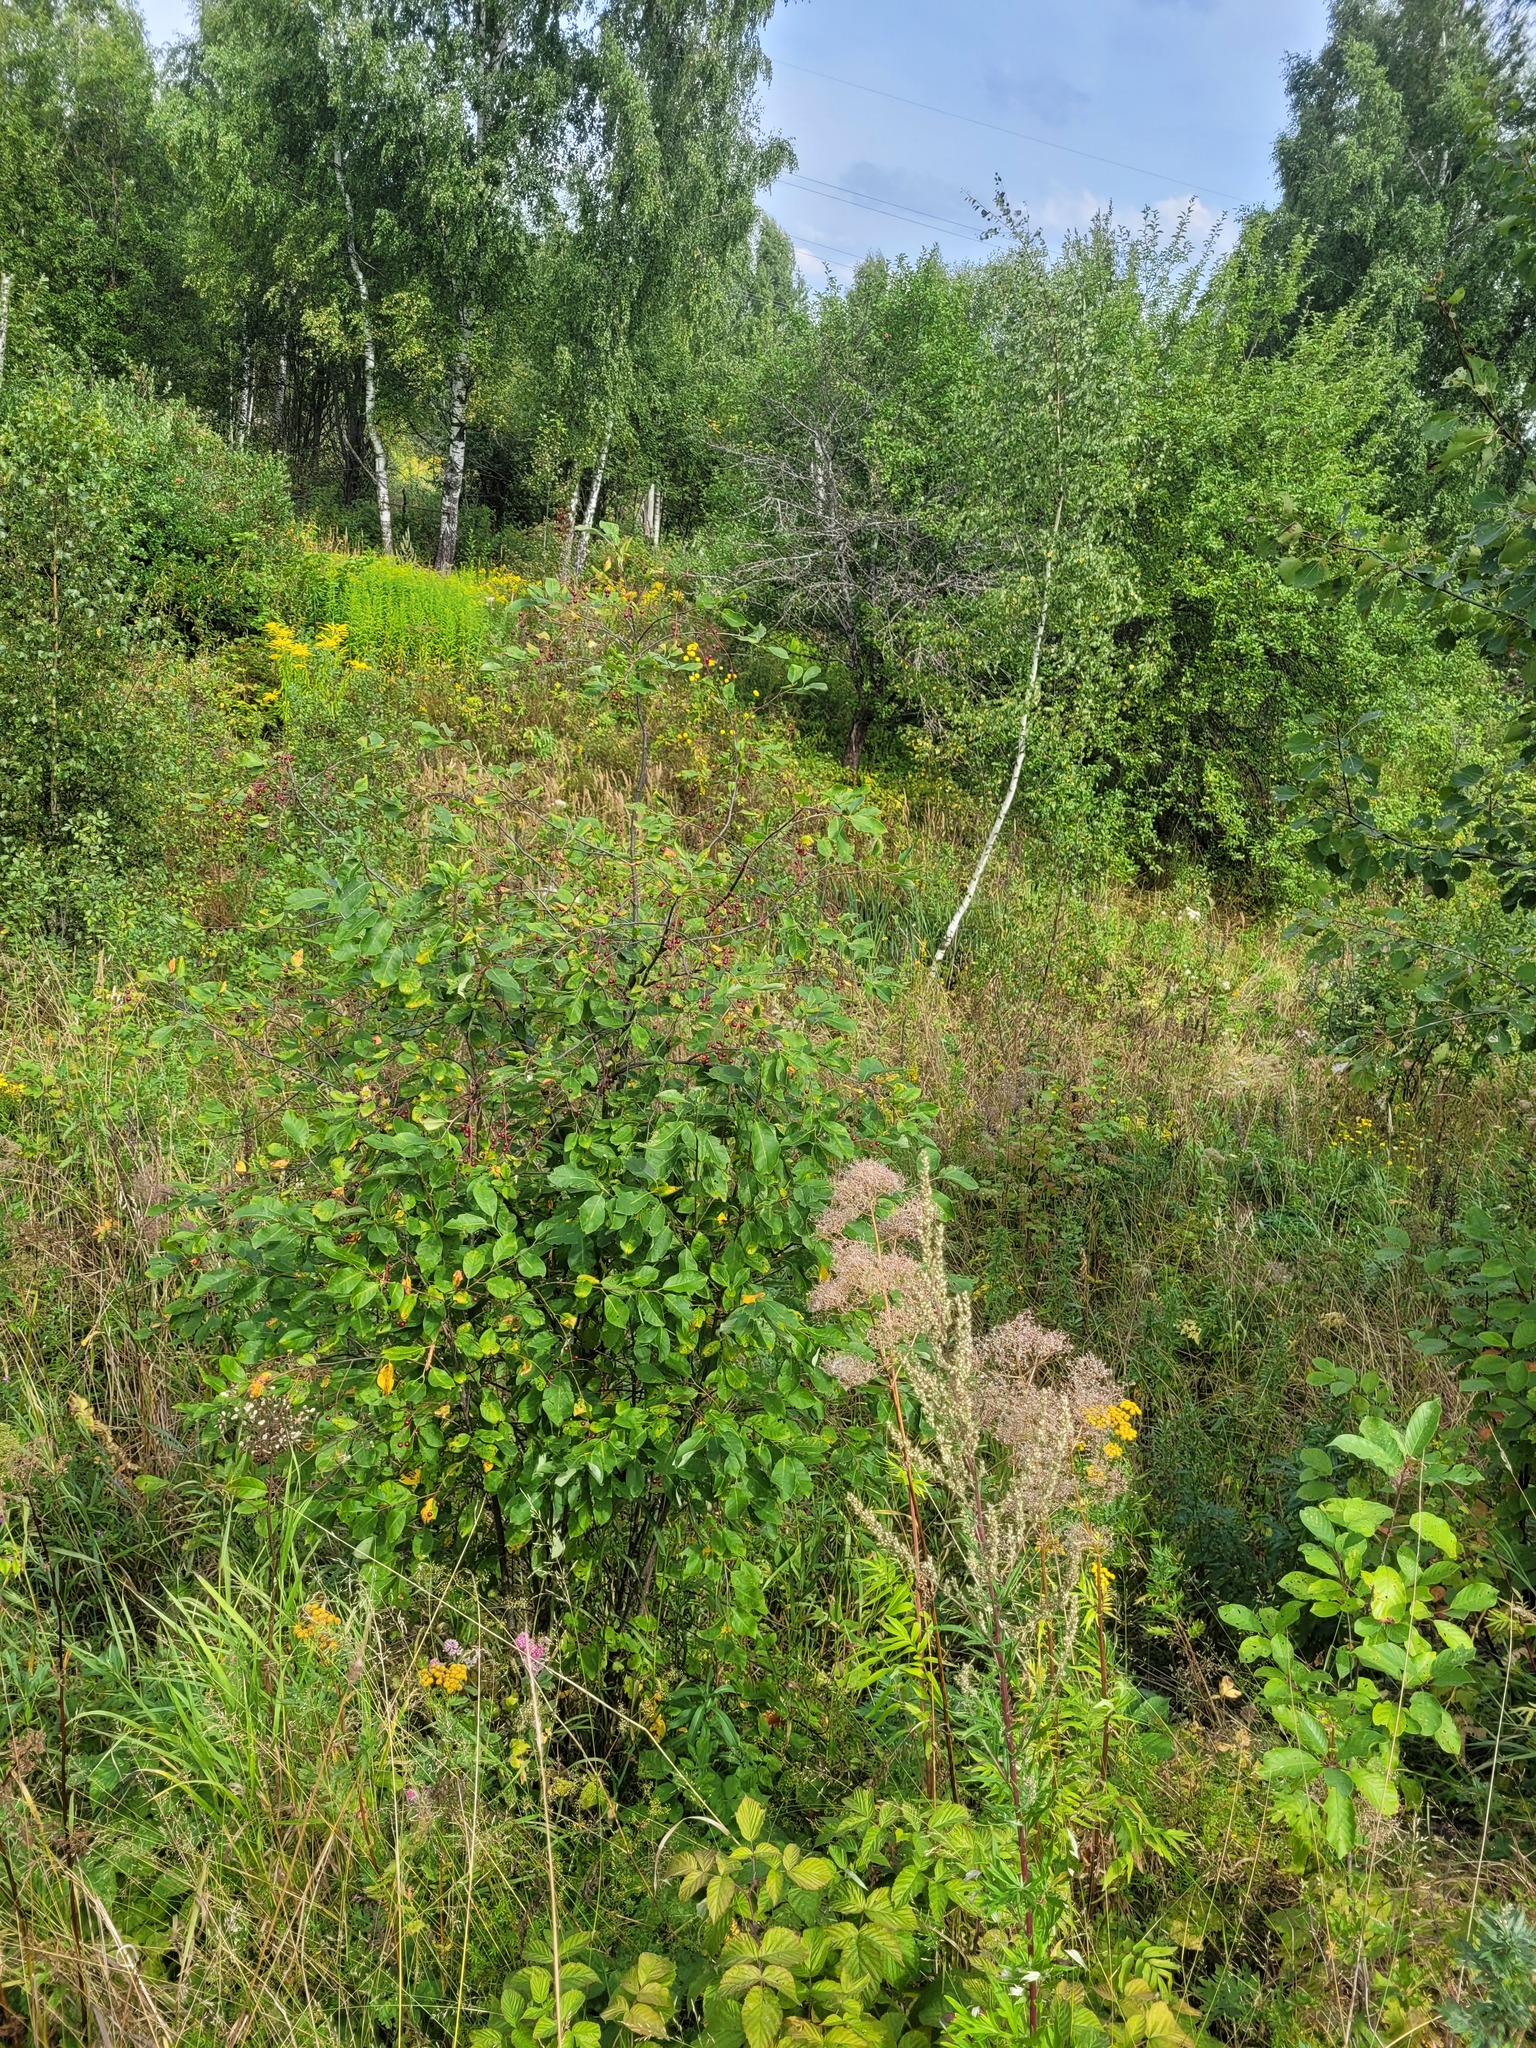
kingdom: Plantae
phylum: Tracheophyta
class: Magnoliopsida
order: Rosales
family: Rosaceae
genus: Prunus
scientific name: Prunus virginiana
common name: Chokecherry
